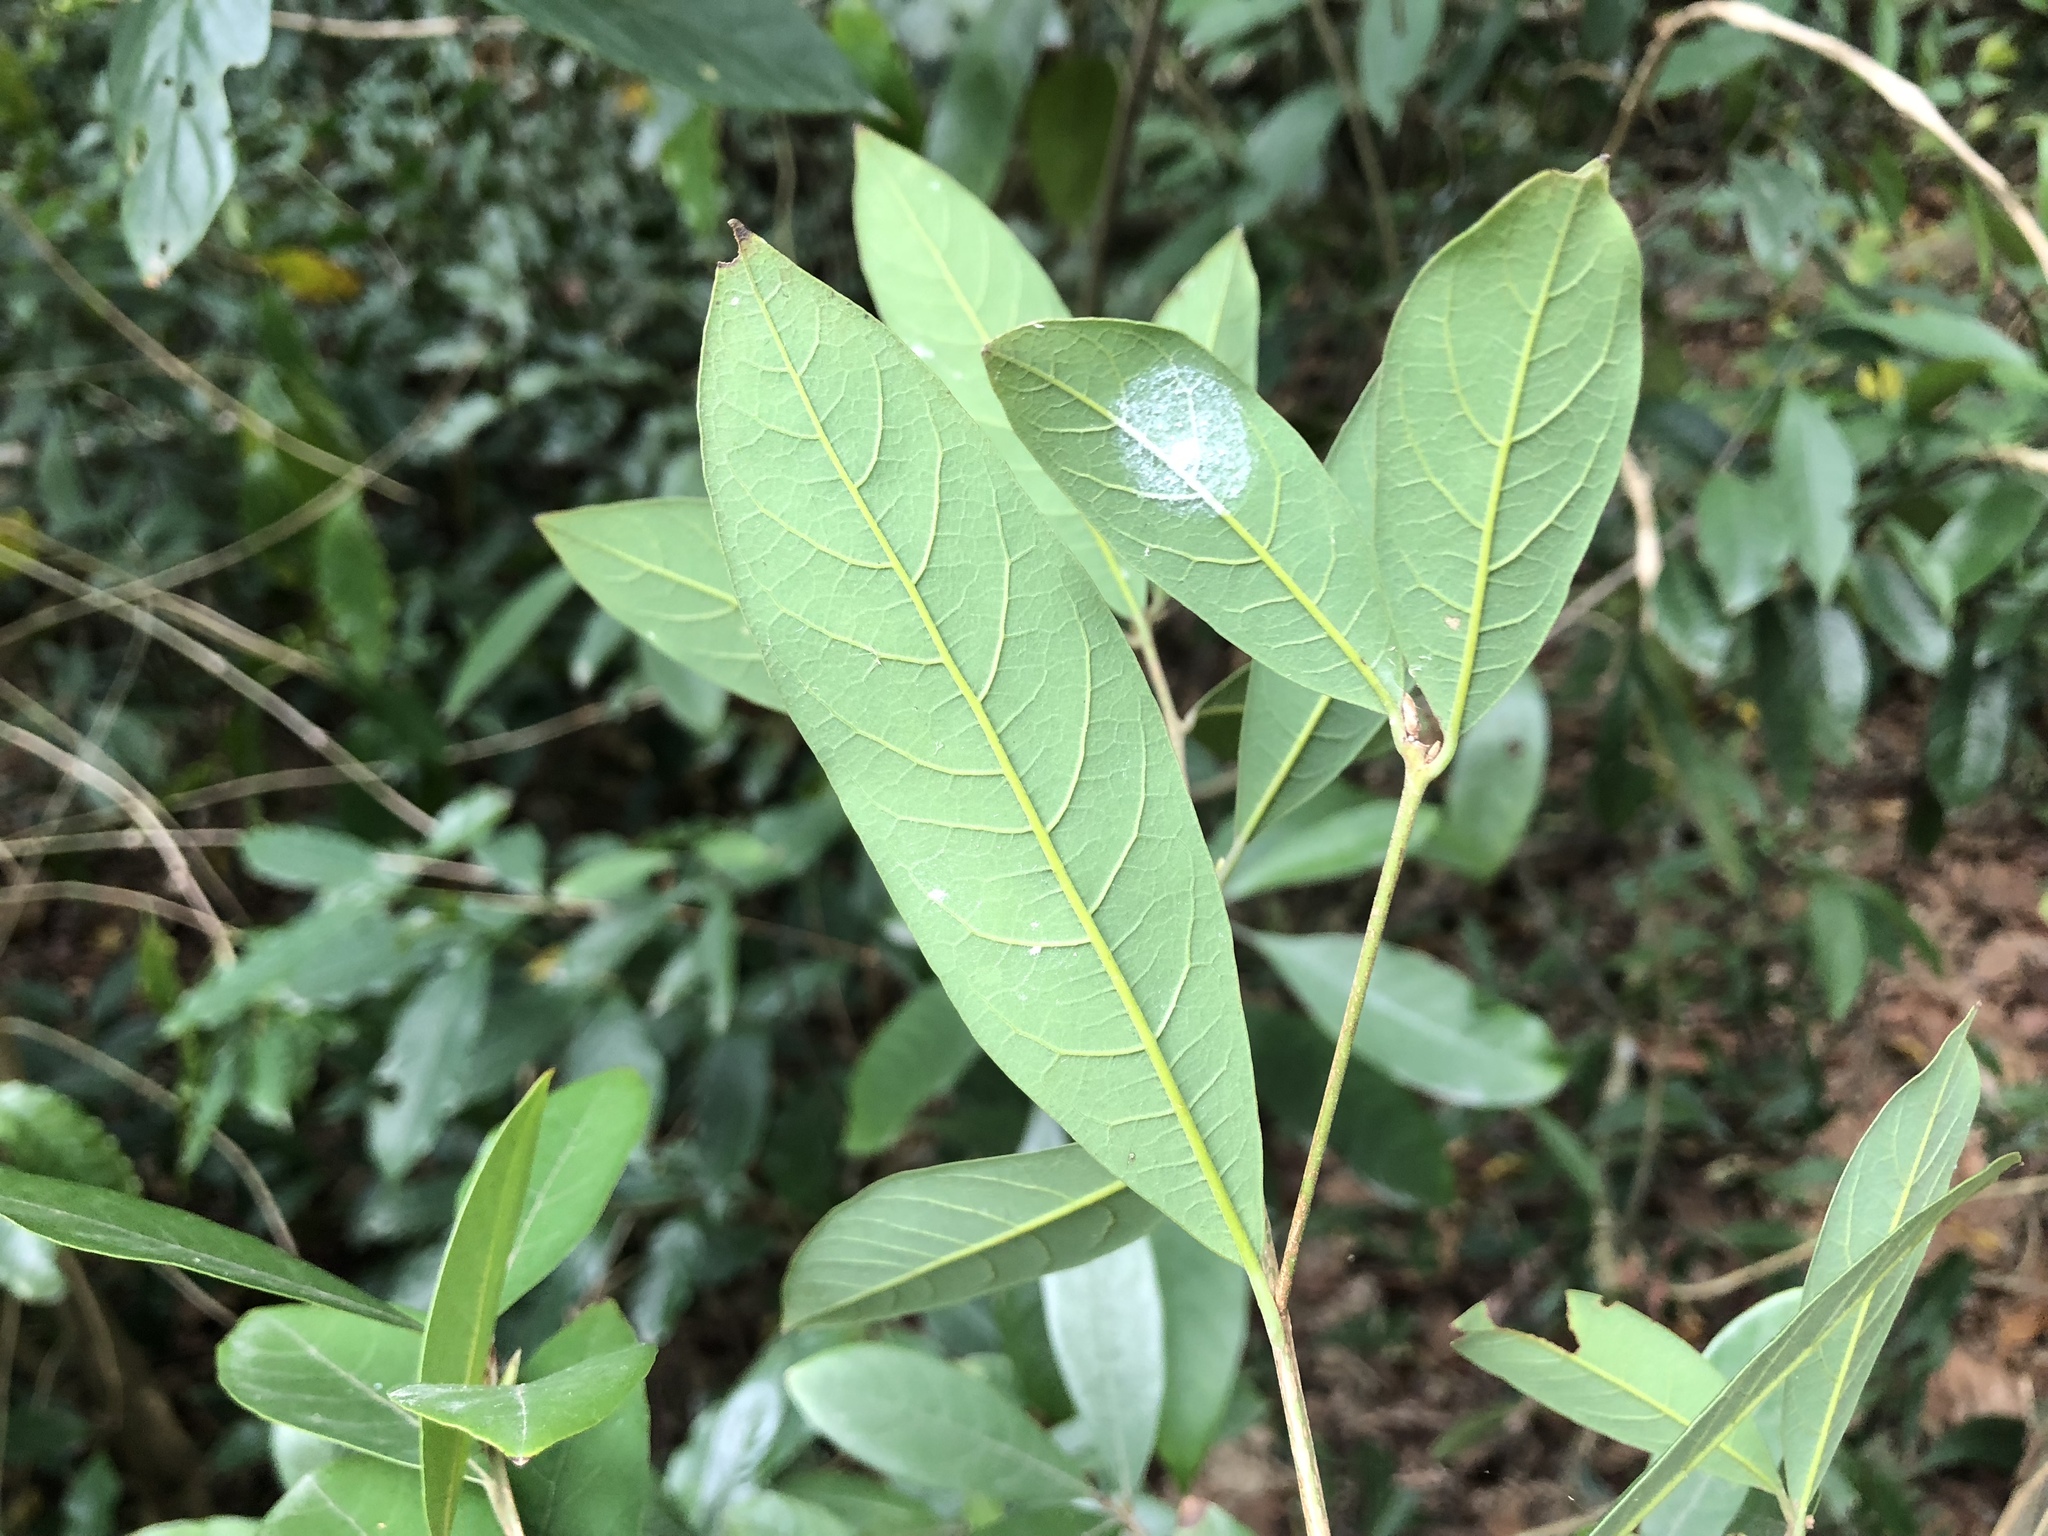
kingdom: Plantae
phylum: Tracheophyta
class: Magnoliopsida
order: Laurales
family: Lauraceae
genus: Litsea
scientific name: Litsea hypophaea
